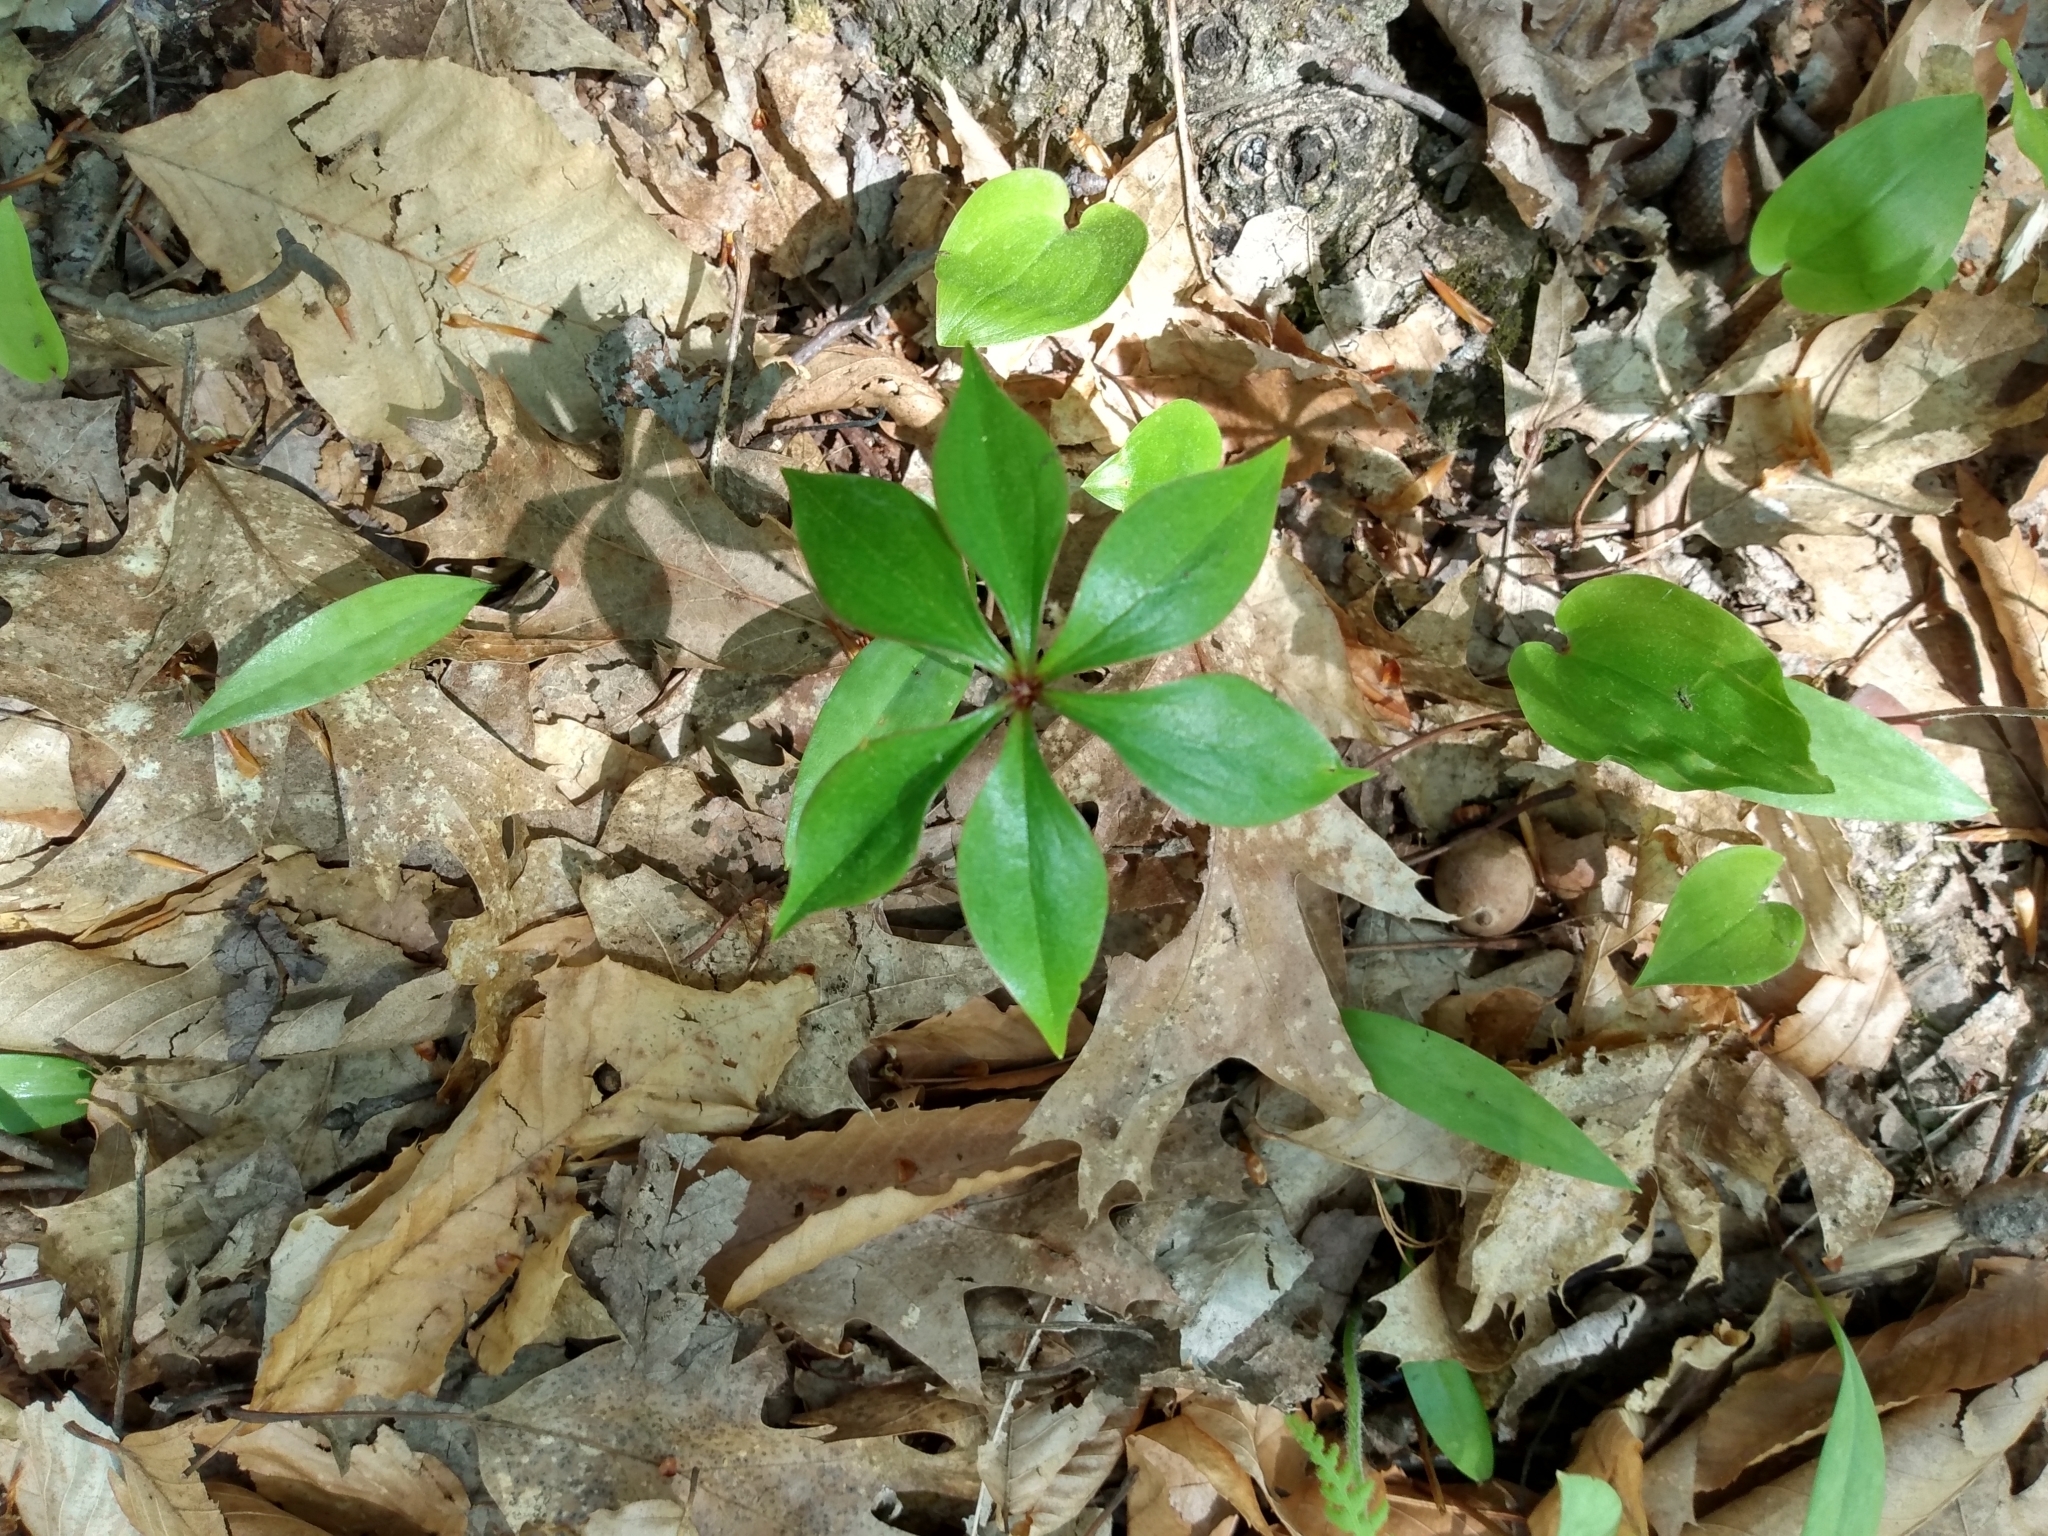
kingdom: Plantae
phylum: Tracheophyta
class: Liliopsida
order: Liliales
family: Liliaceae
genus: Medeola
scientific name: Medeola virginiana
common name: Indian cucumber-root
